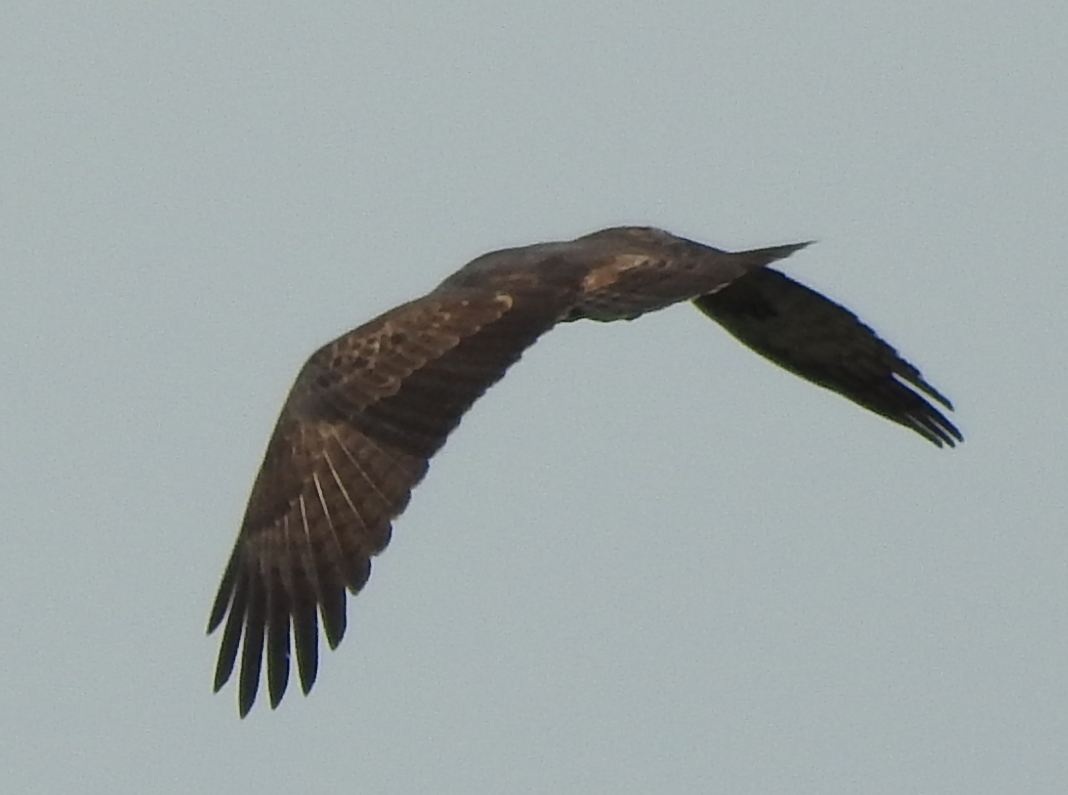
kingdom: Animalia
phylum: Chordata
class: Aves
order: Accipitriformes
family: Accipitridae
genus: Pernis
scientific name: Pernis ptilorhynchus
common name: Crested honey buzzard
